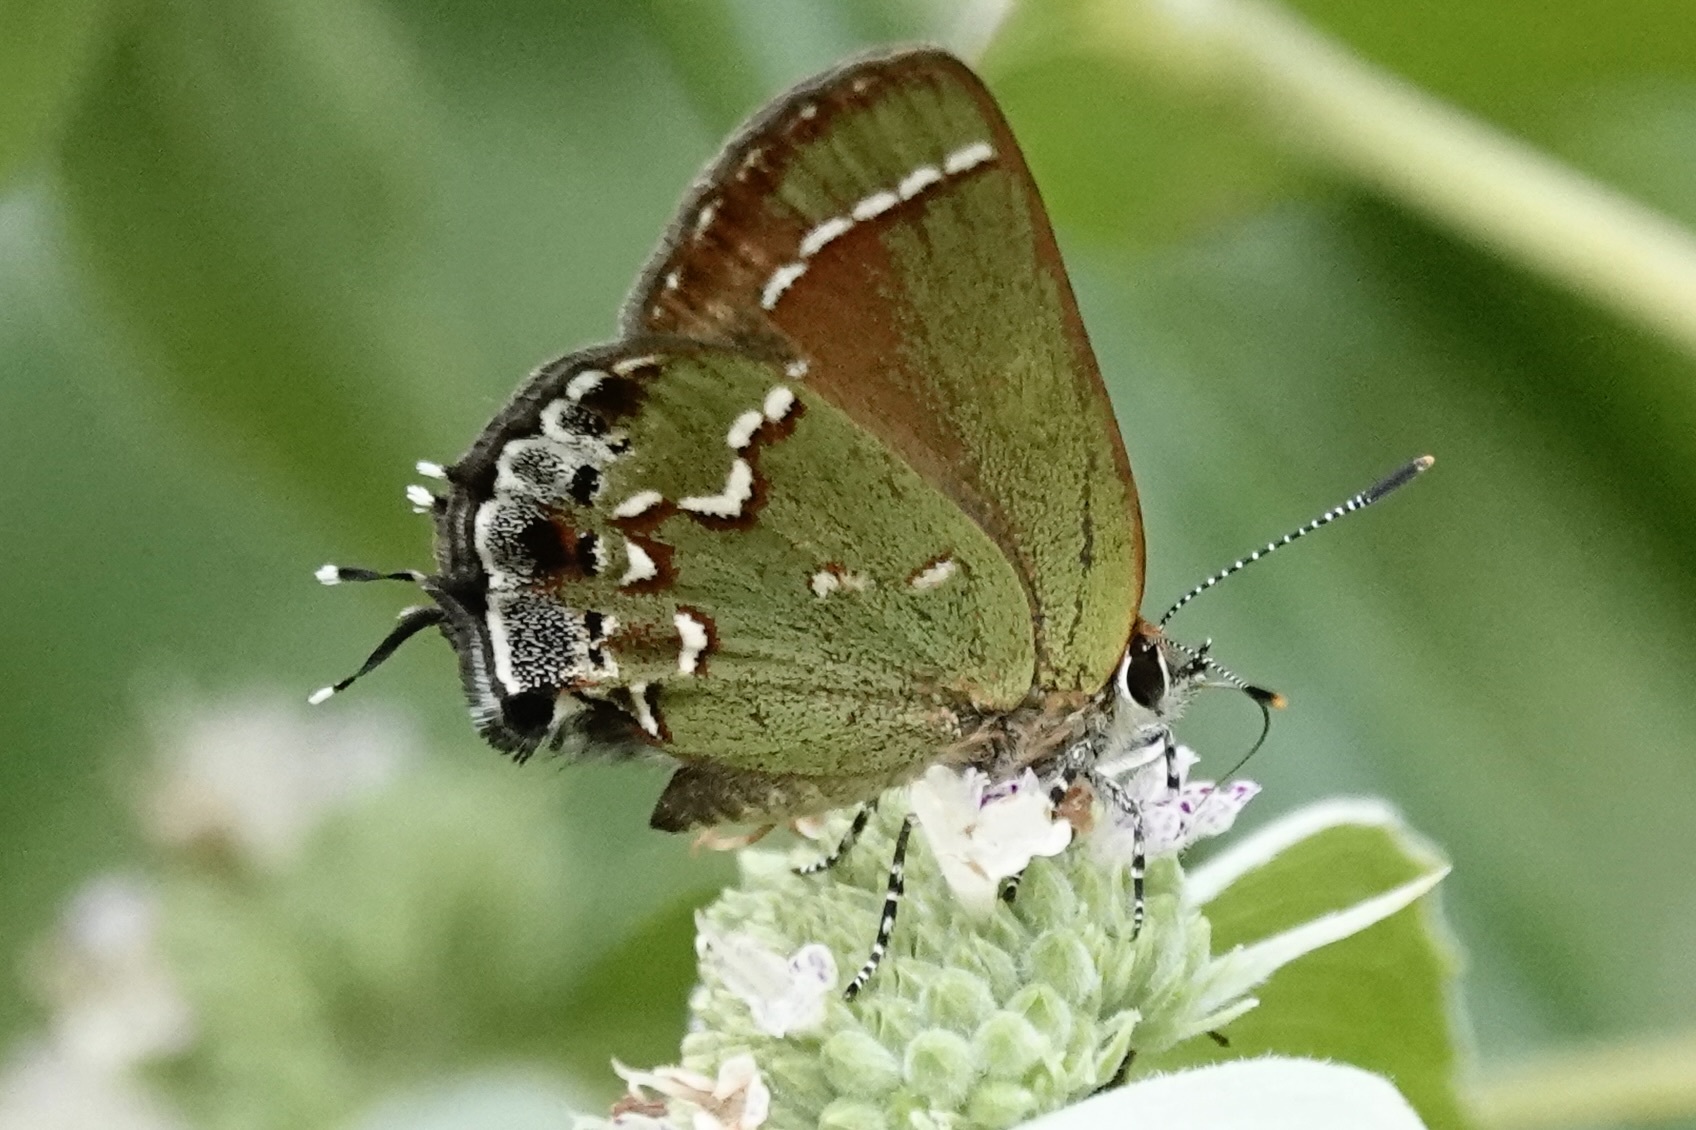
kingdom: Animalia
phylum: Arthropoda
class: Insecta
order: Lepidoptera
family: Lycaenidae
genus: Mitoura
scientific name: Mitoura gryneus
